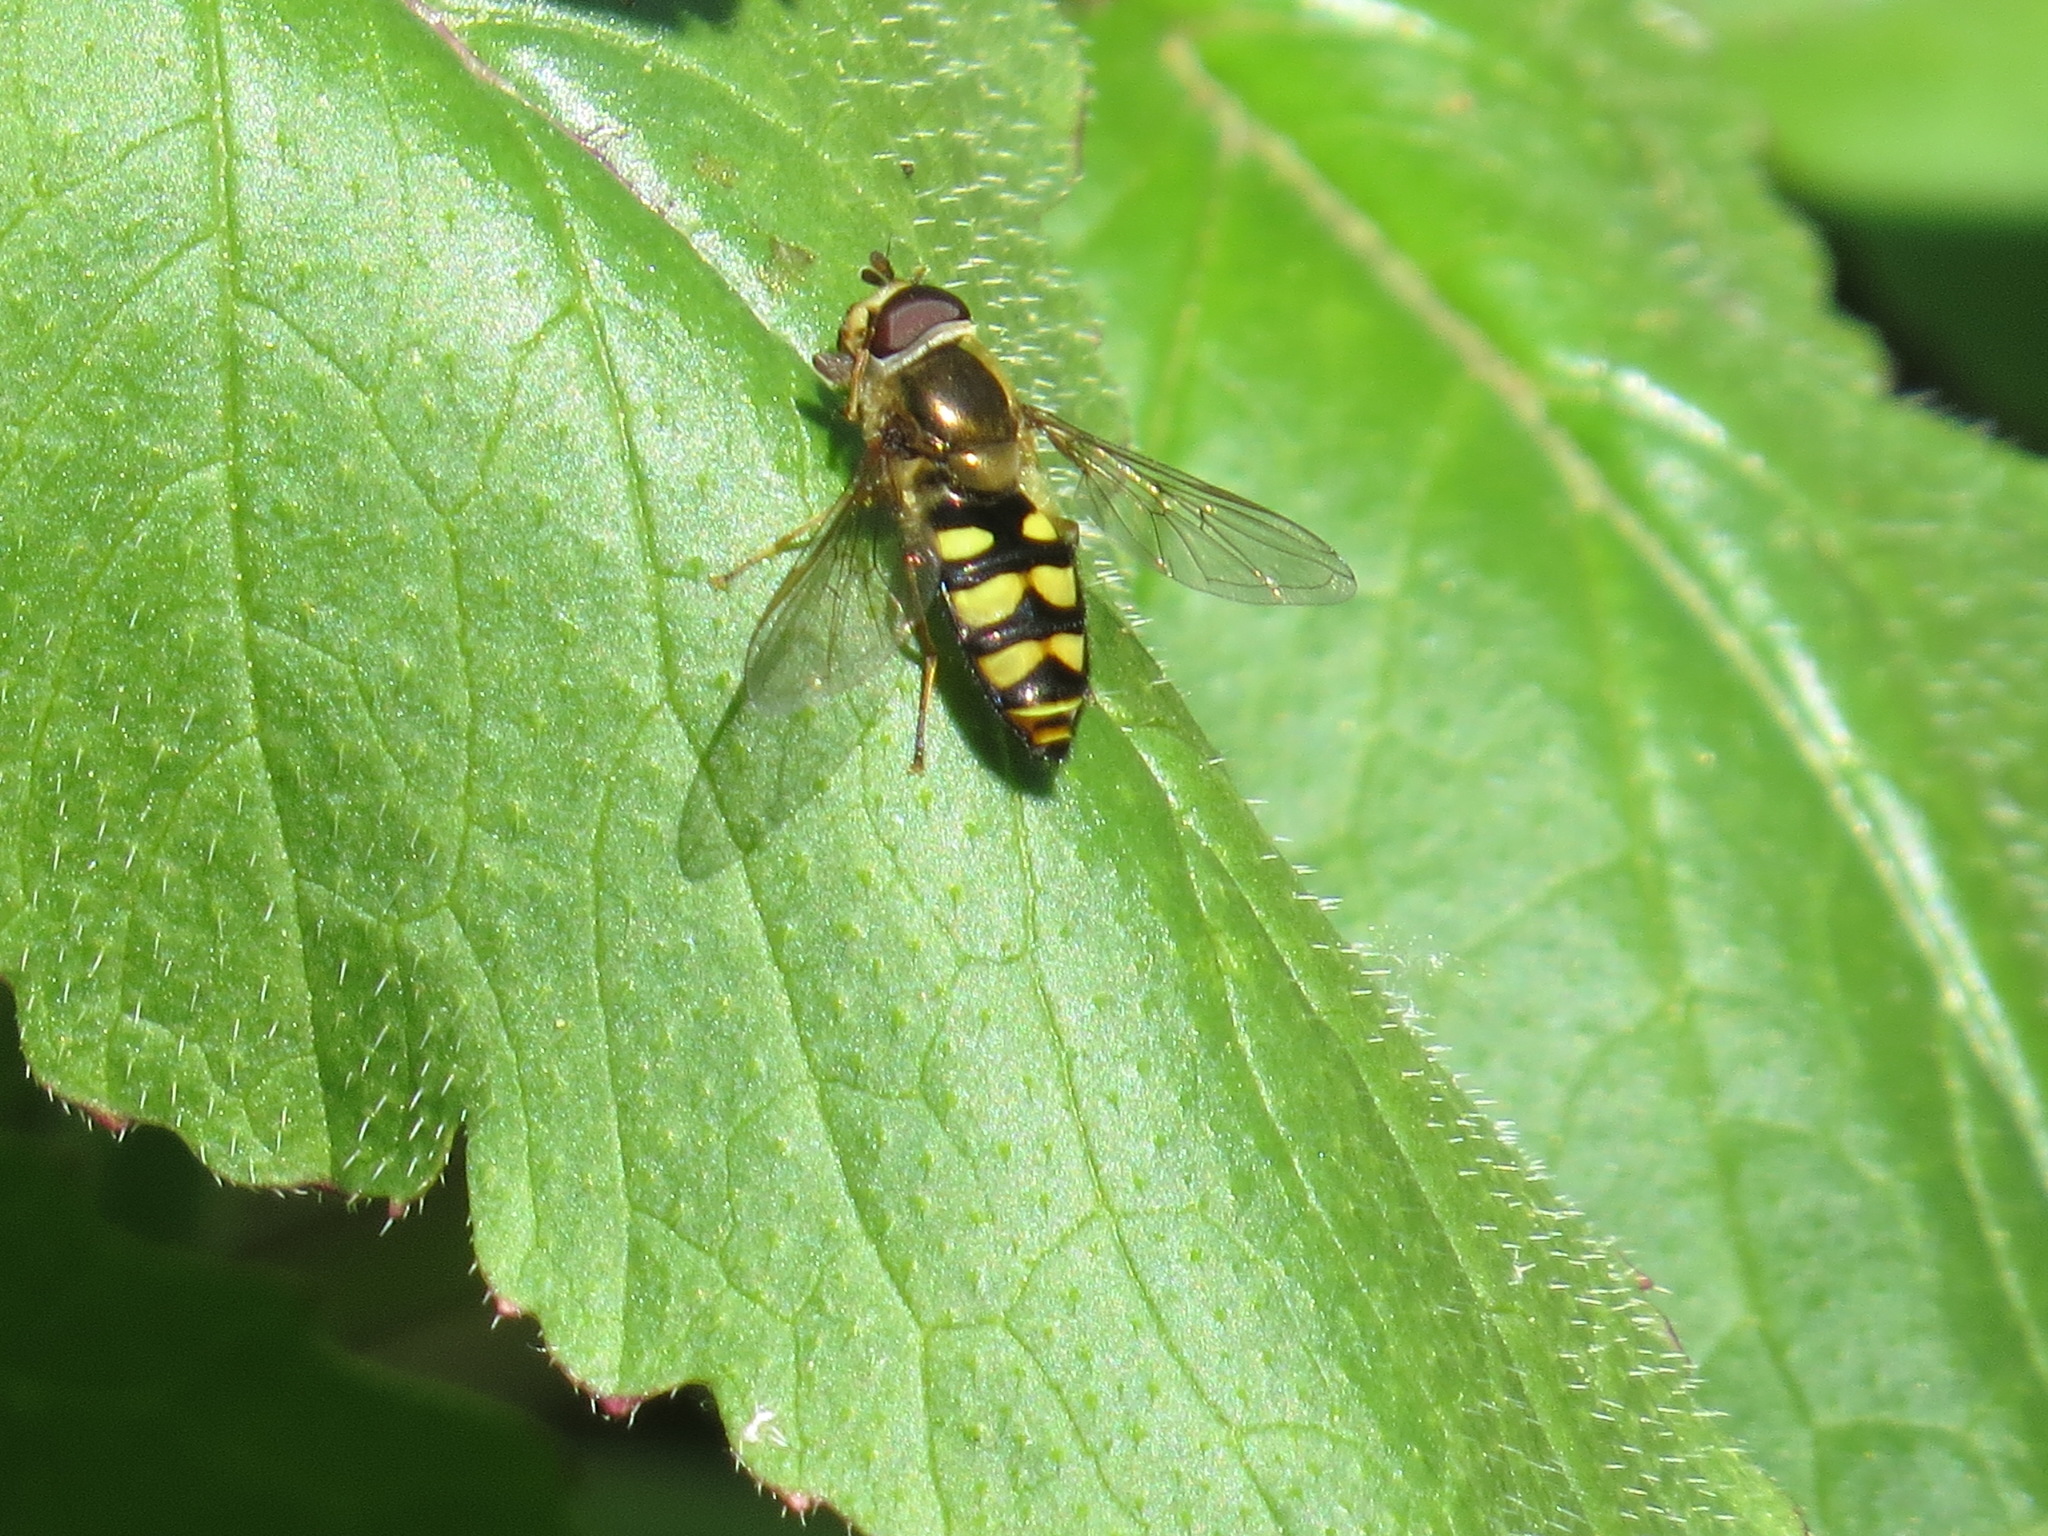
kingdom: Animalia
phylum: Arthropoda
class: Insecta
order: Diptera
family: Syrphidae
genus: Eupeodes
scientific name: Eupeodes fumipennis
